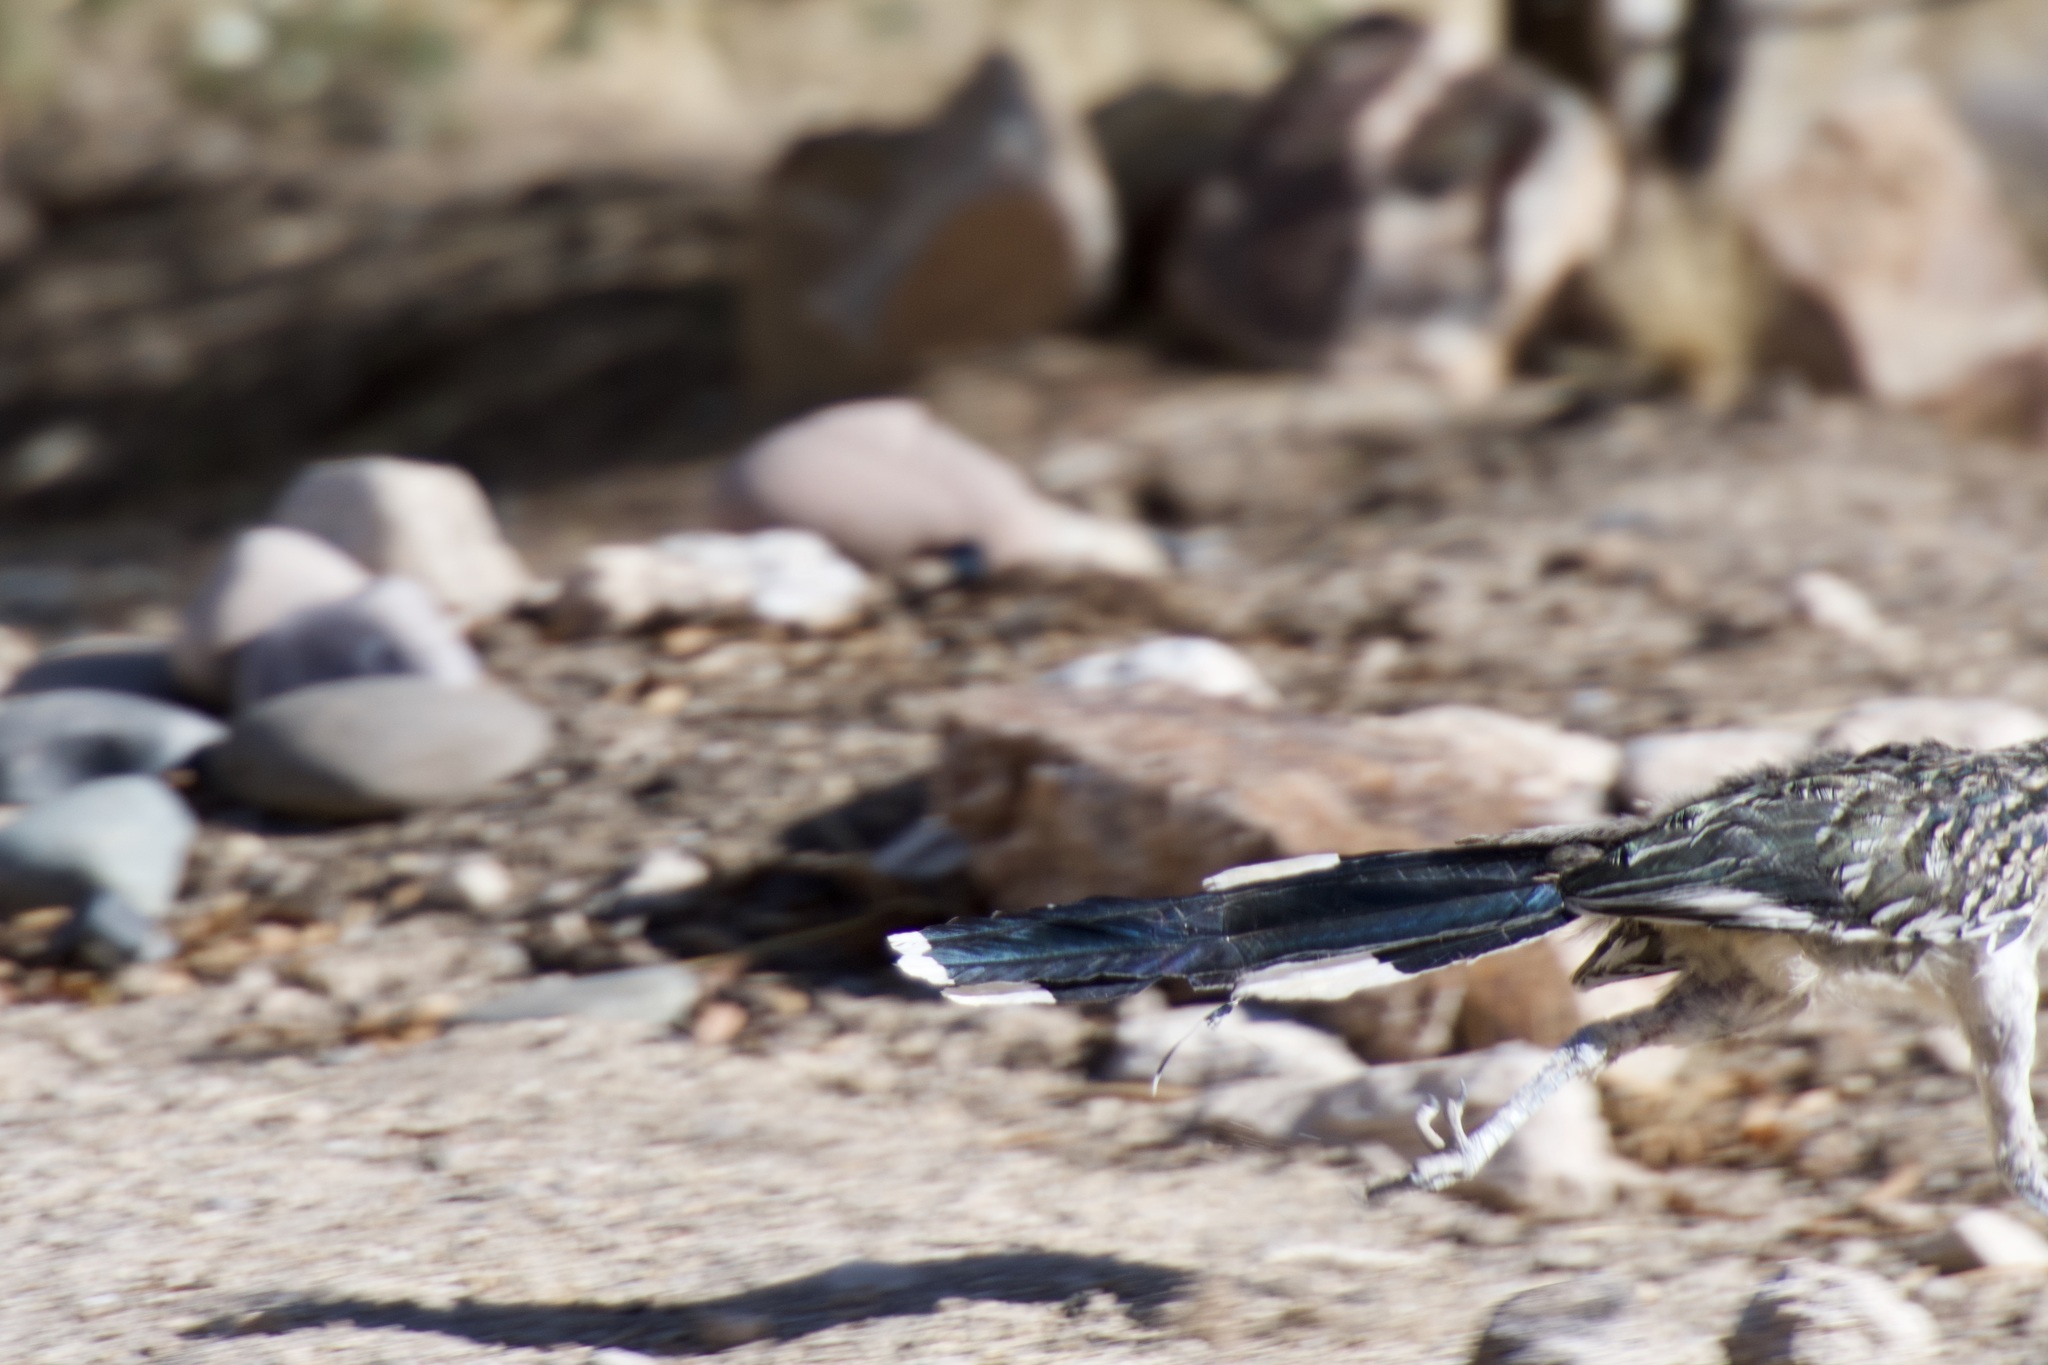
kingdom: Animalia
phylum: Chordata
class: Aves
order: Cuculiformes
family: Cuculidae
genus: Geococcyx
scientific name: Geococcyx californianus
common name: Greater roadrunner
